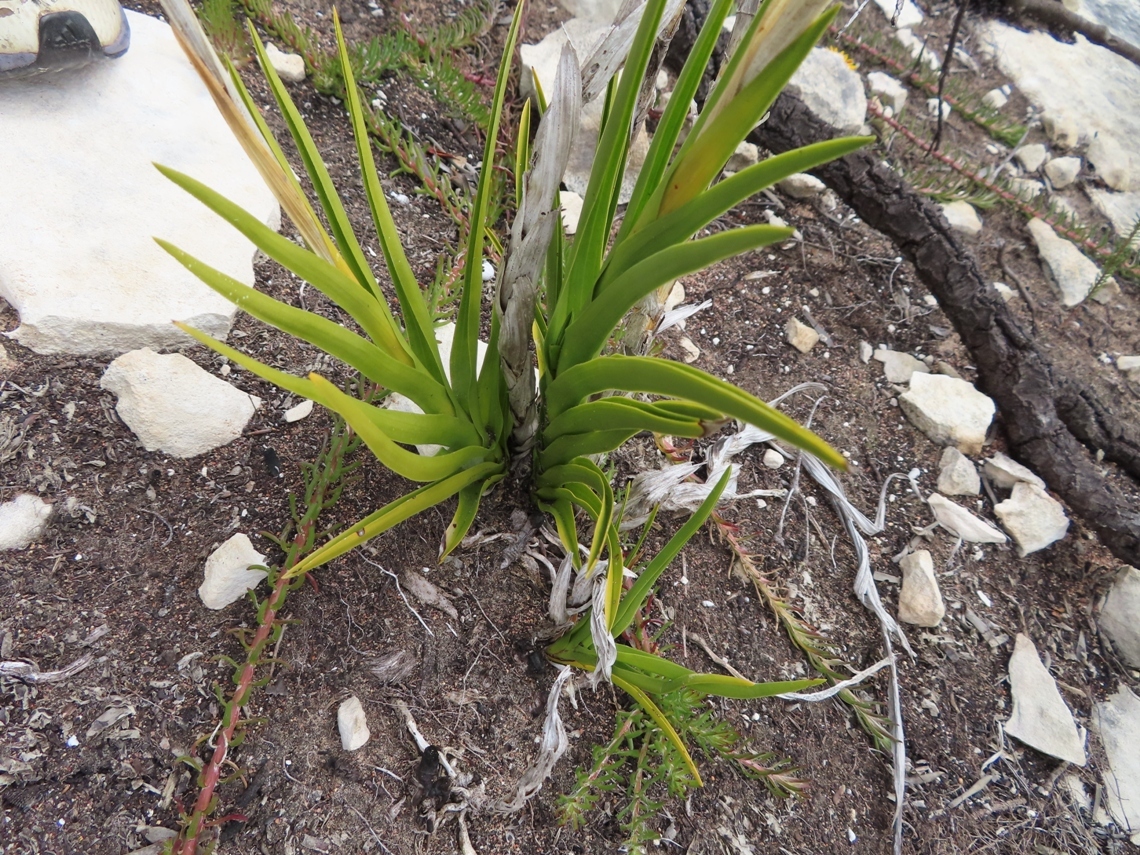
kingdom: Plantae
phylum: Tracheophyta
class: Liliopsida
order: Asparagales
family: Orchidaceae
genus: Eulophia
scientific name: Eulophia micrantha
